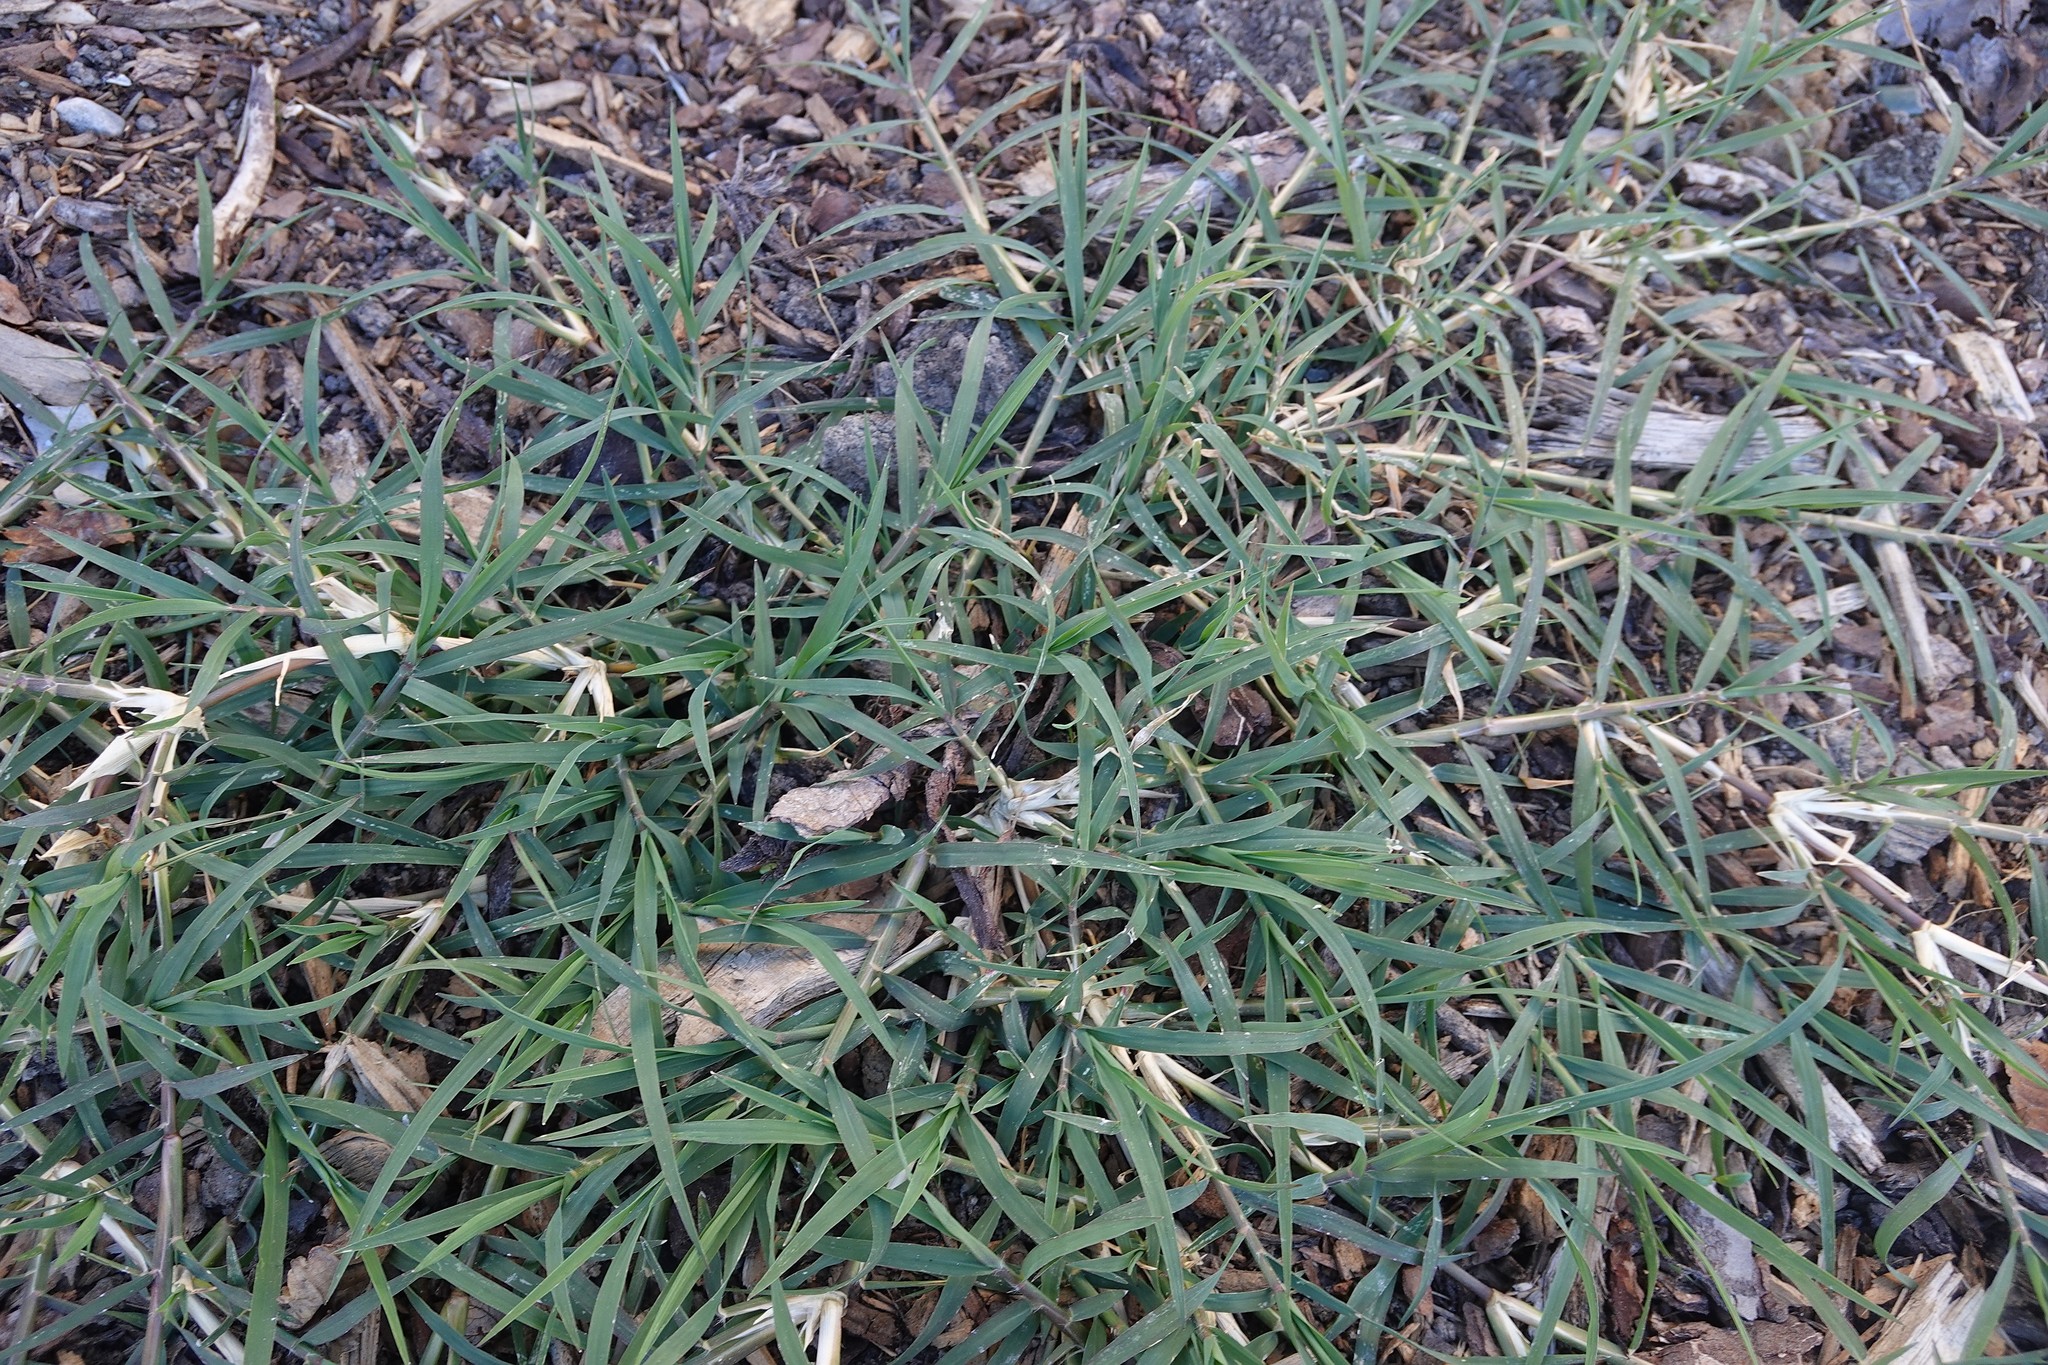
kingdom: Plantae
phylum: Tracheophyta
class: Liliopsida
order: Poales
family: Poaceae
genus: Cynodon
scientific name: Cynodon dactylon
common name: Bermuda grass
